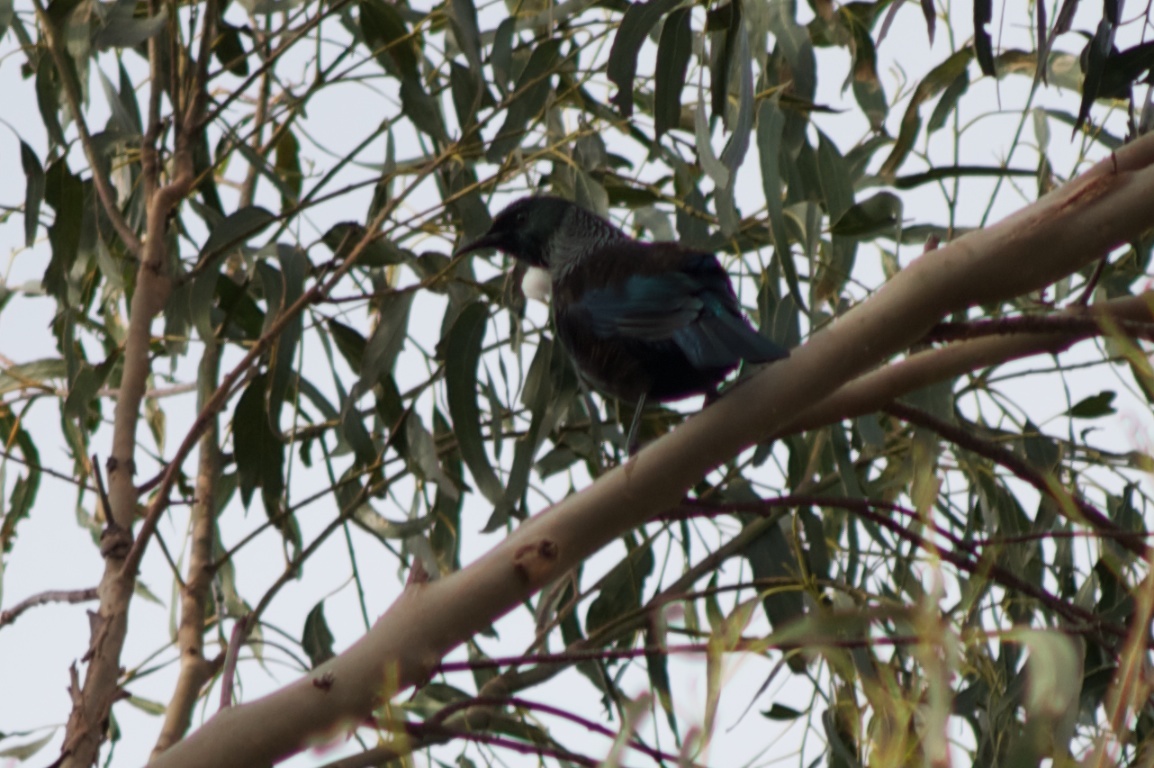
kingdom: Animalia
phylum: Chordata
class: Aves
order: Passeriformes
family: Meliphagidae
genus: Prosthemadera
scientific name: Prosthemadera novaeseelandiae
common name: Tui
